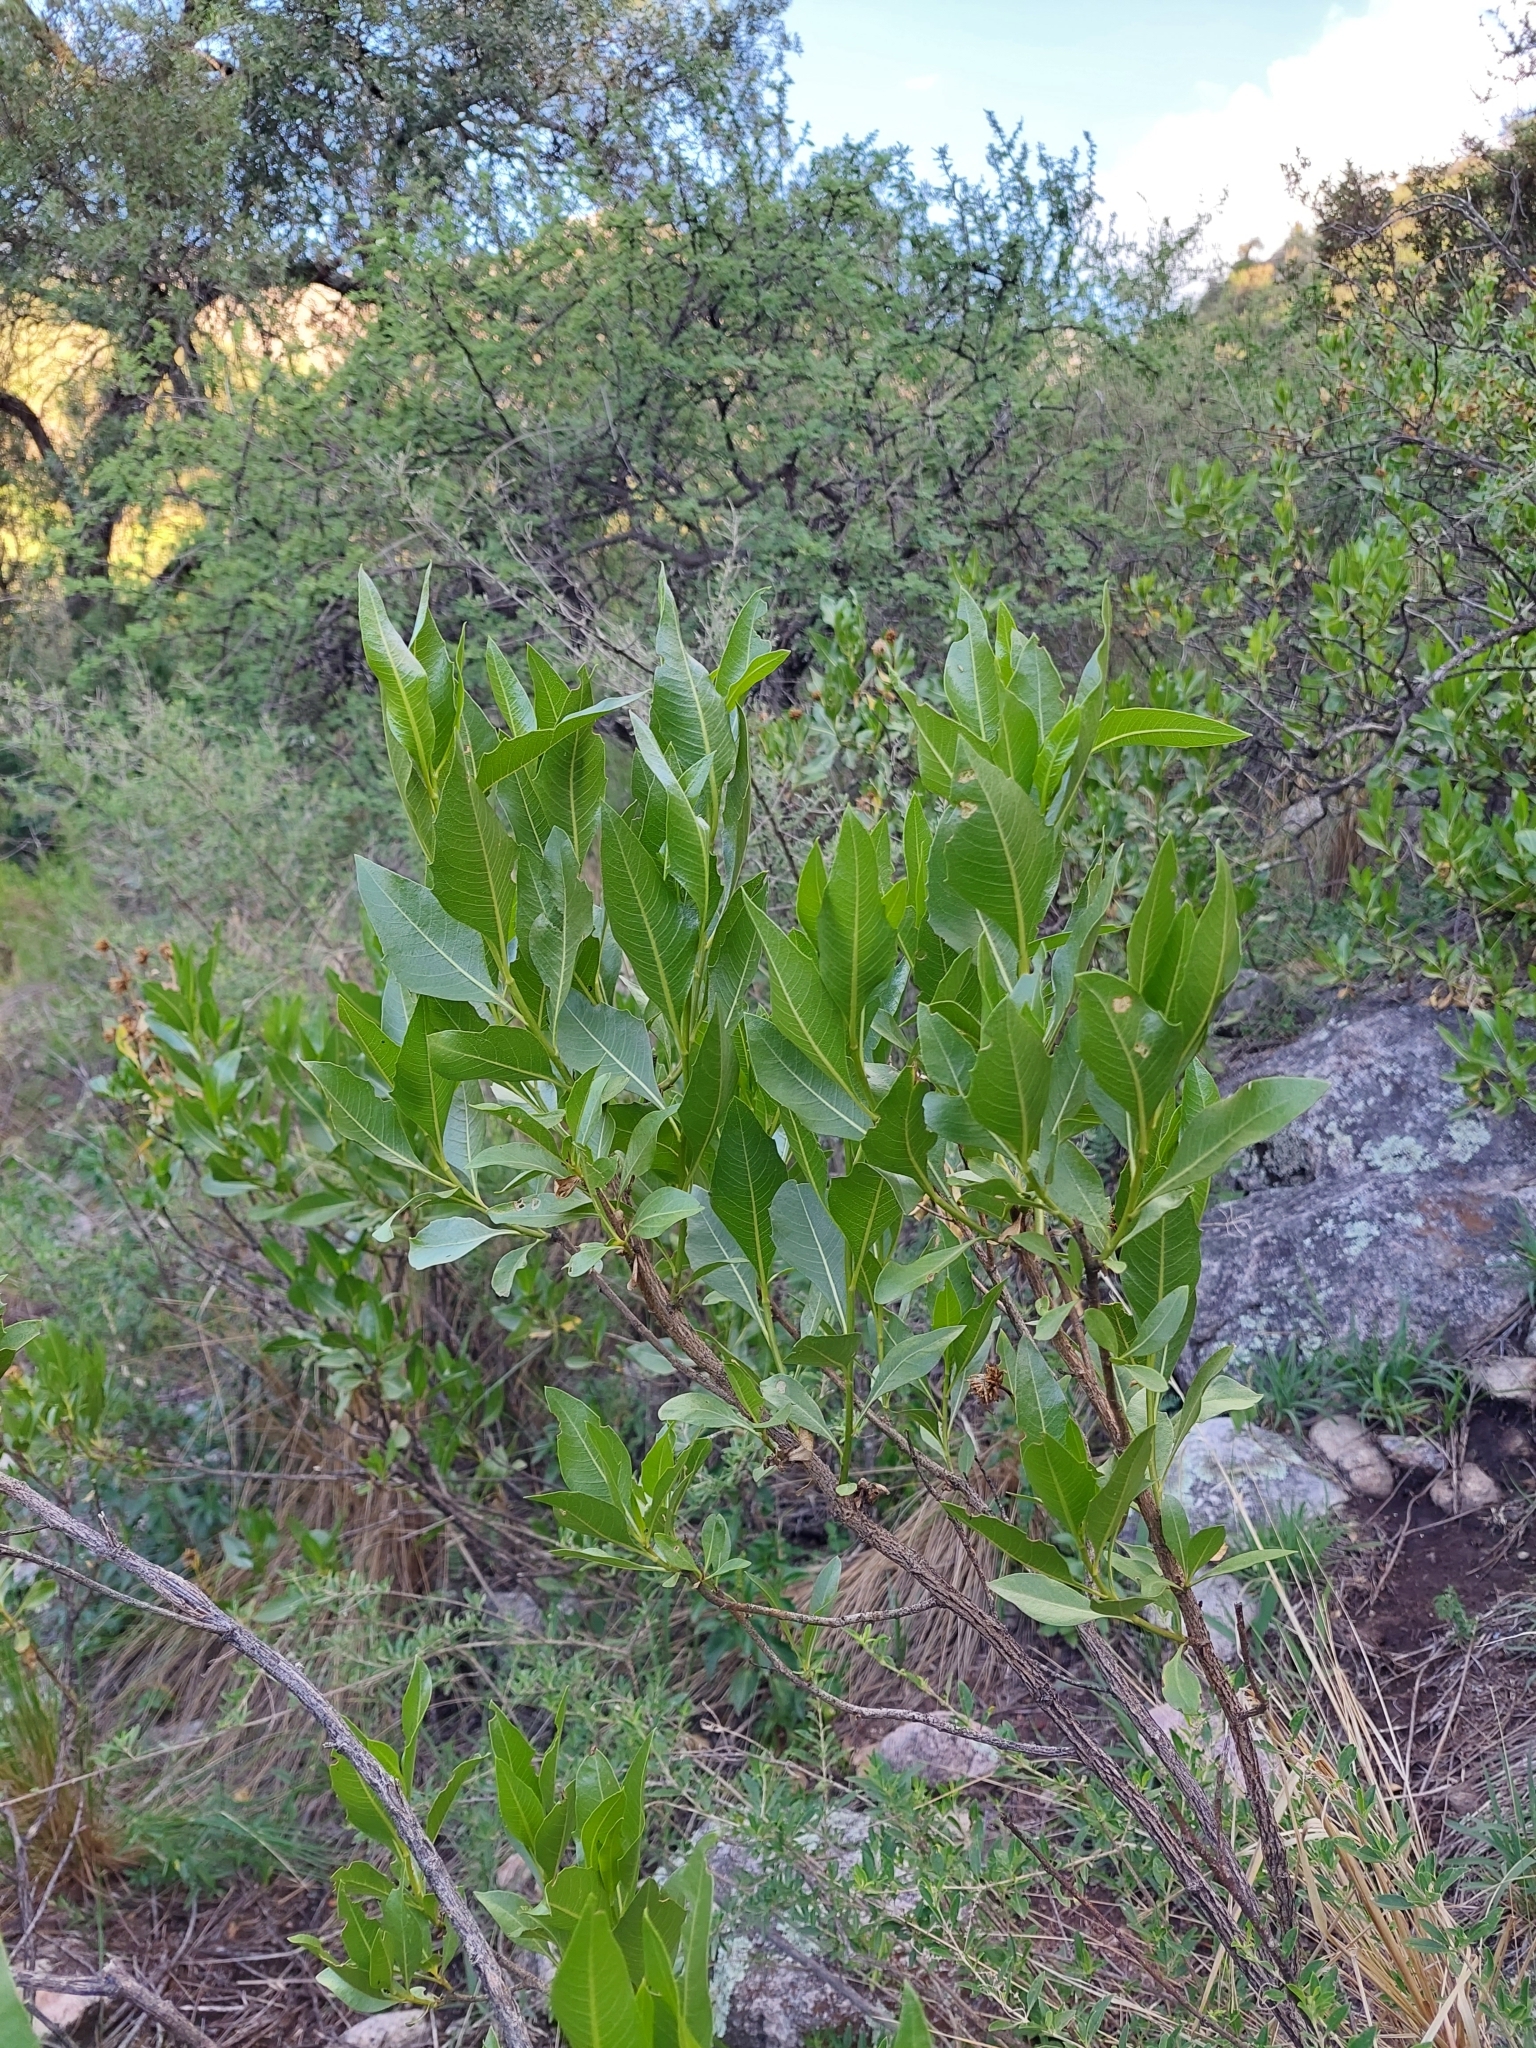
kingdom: Plantae
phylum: Tracheophyta
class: Magnoliopsida
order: Asterales
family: Asteraceae
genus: Flourensia
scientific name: Flourensia thurifera
